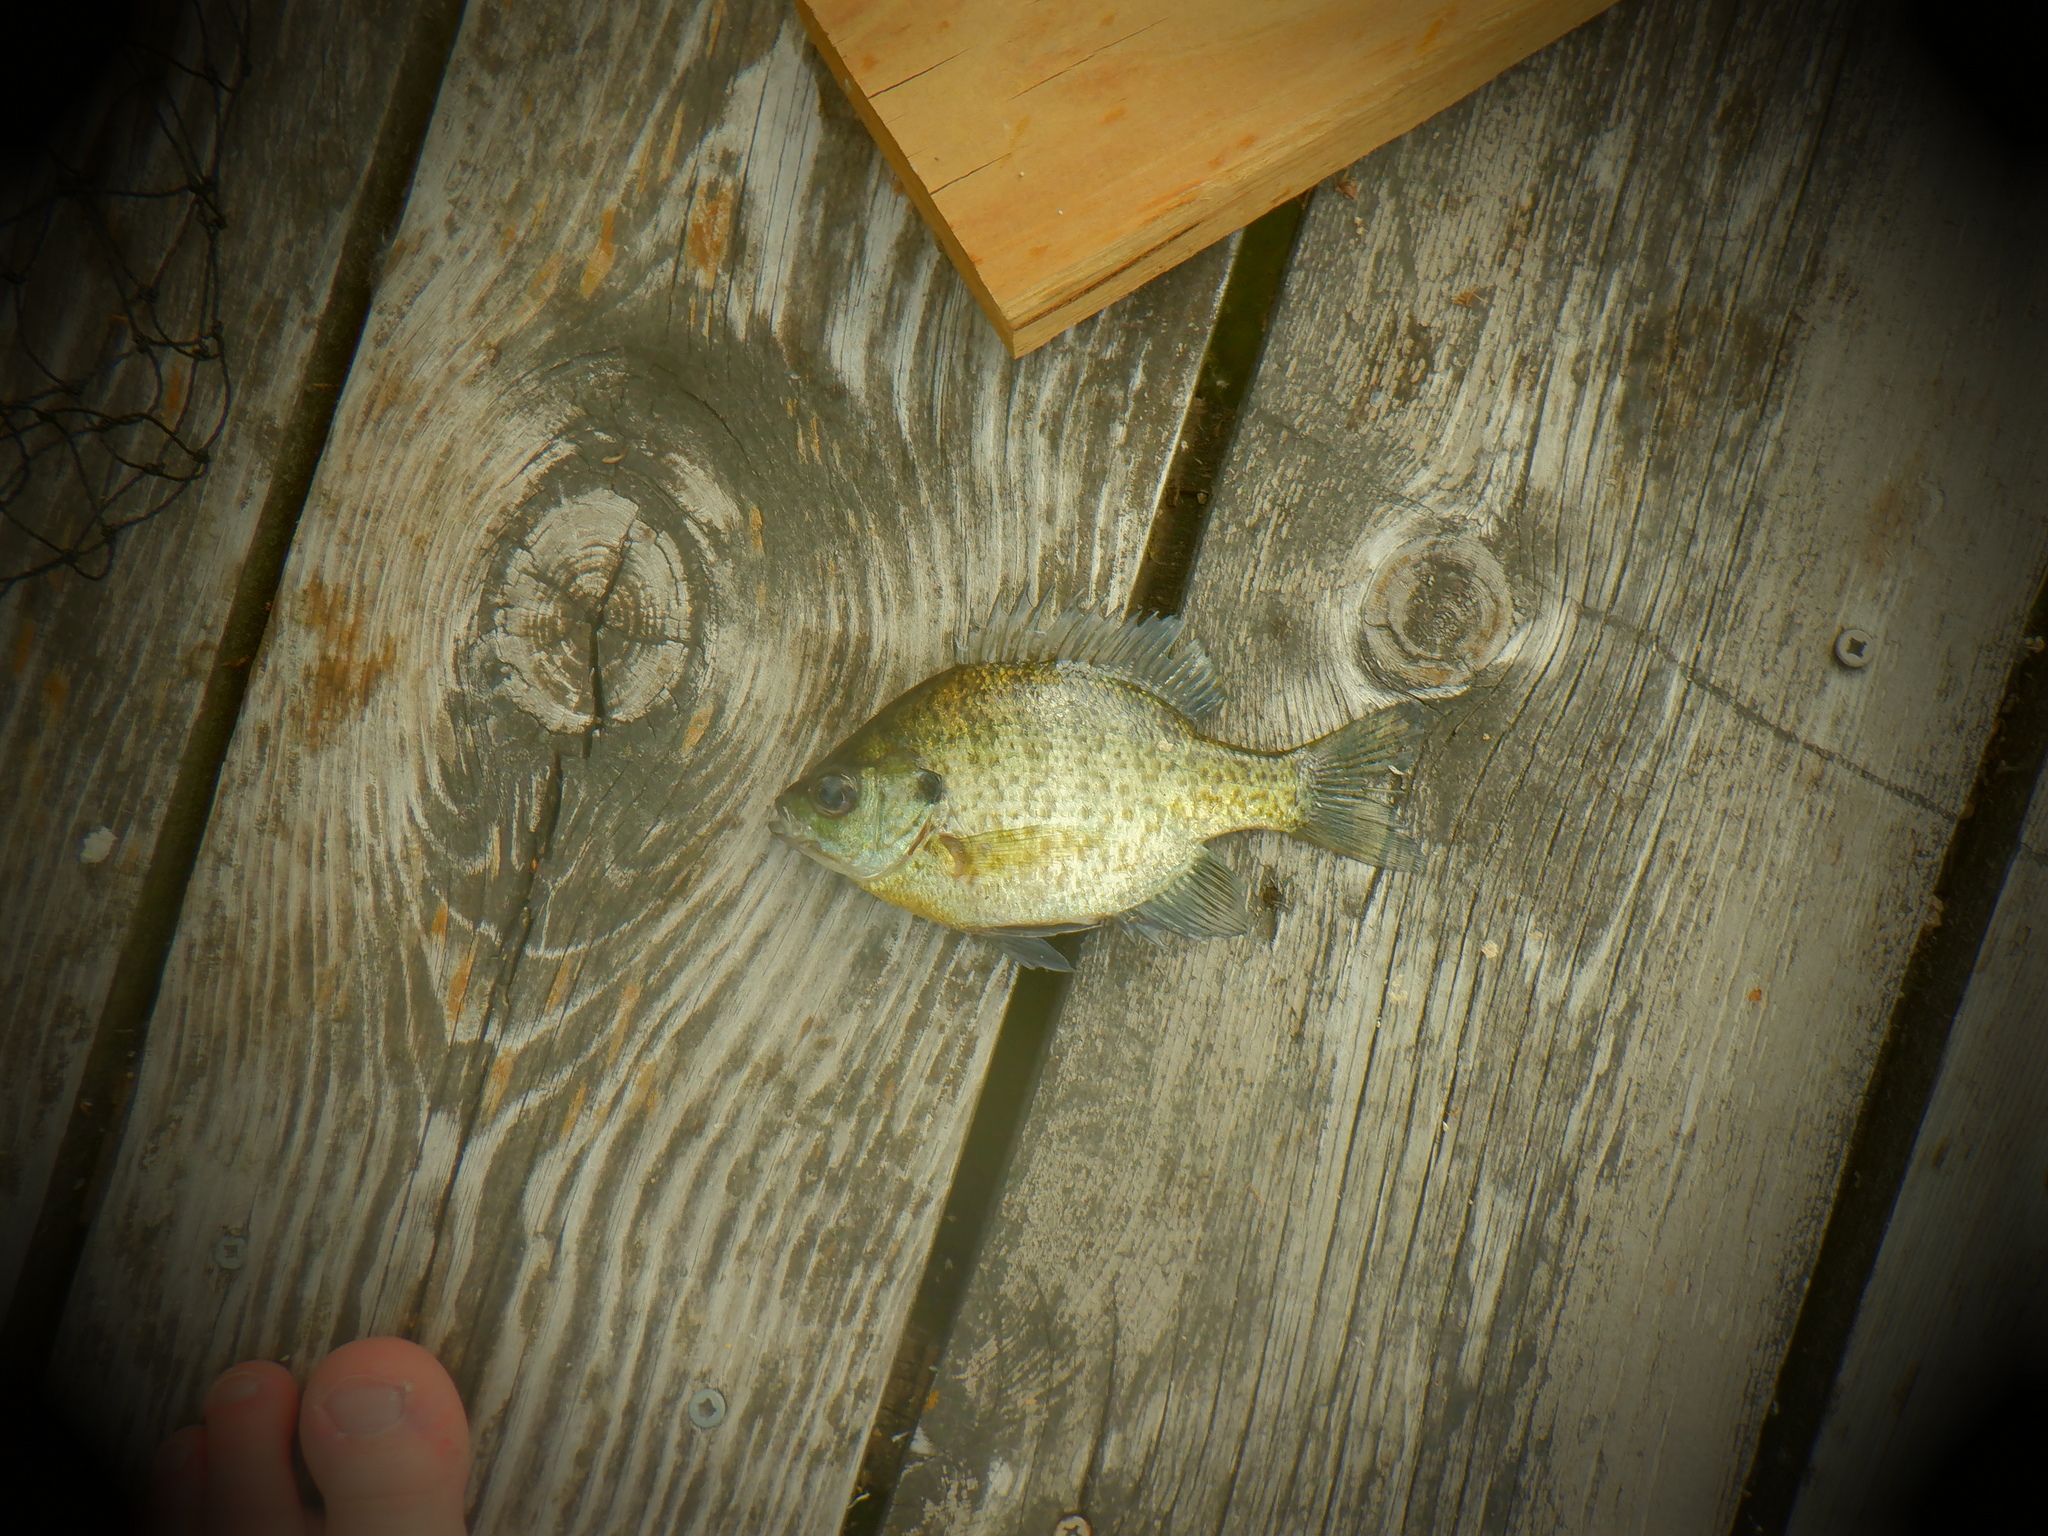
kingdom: Animalia
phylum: Chordata
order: Perciformes
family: Centrarchidae
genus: Lepomis
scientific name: Lepomis macrochirus
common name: Bluegill
